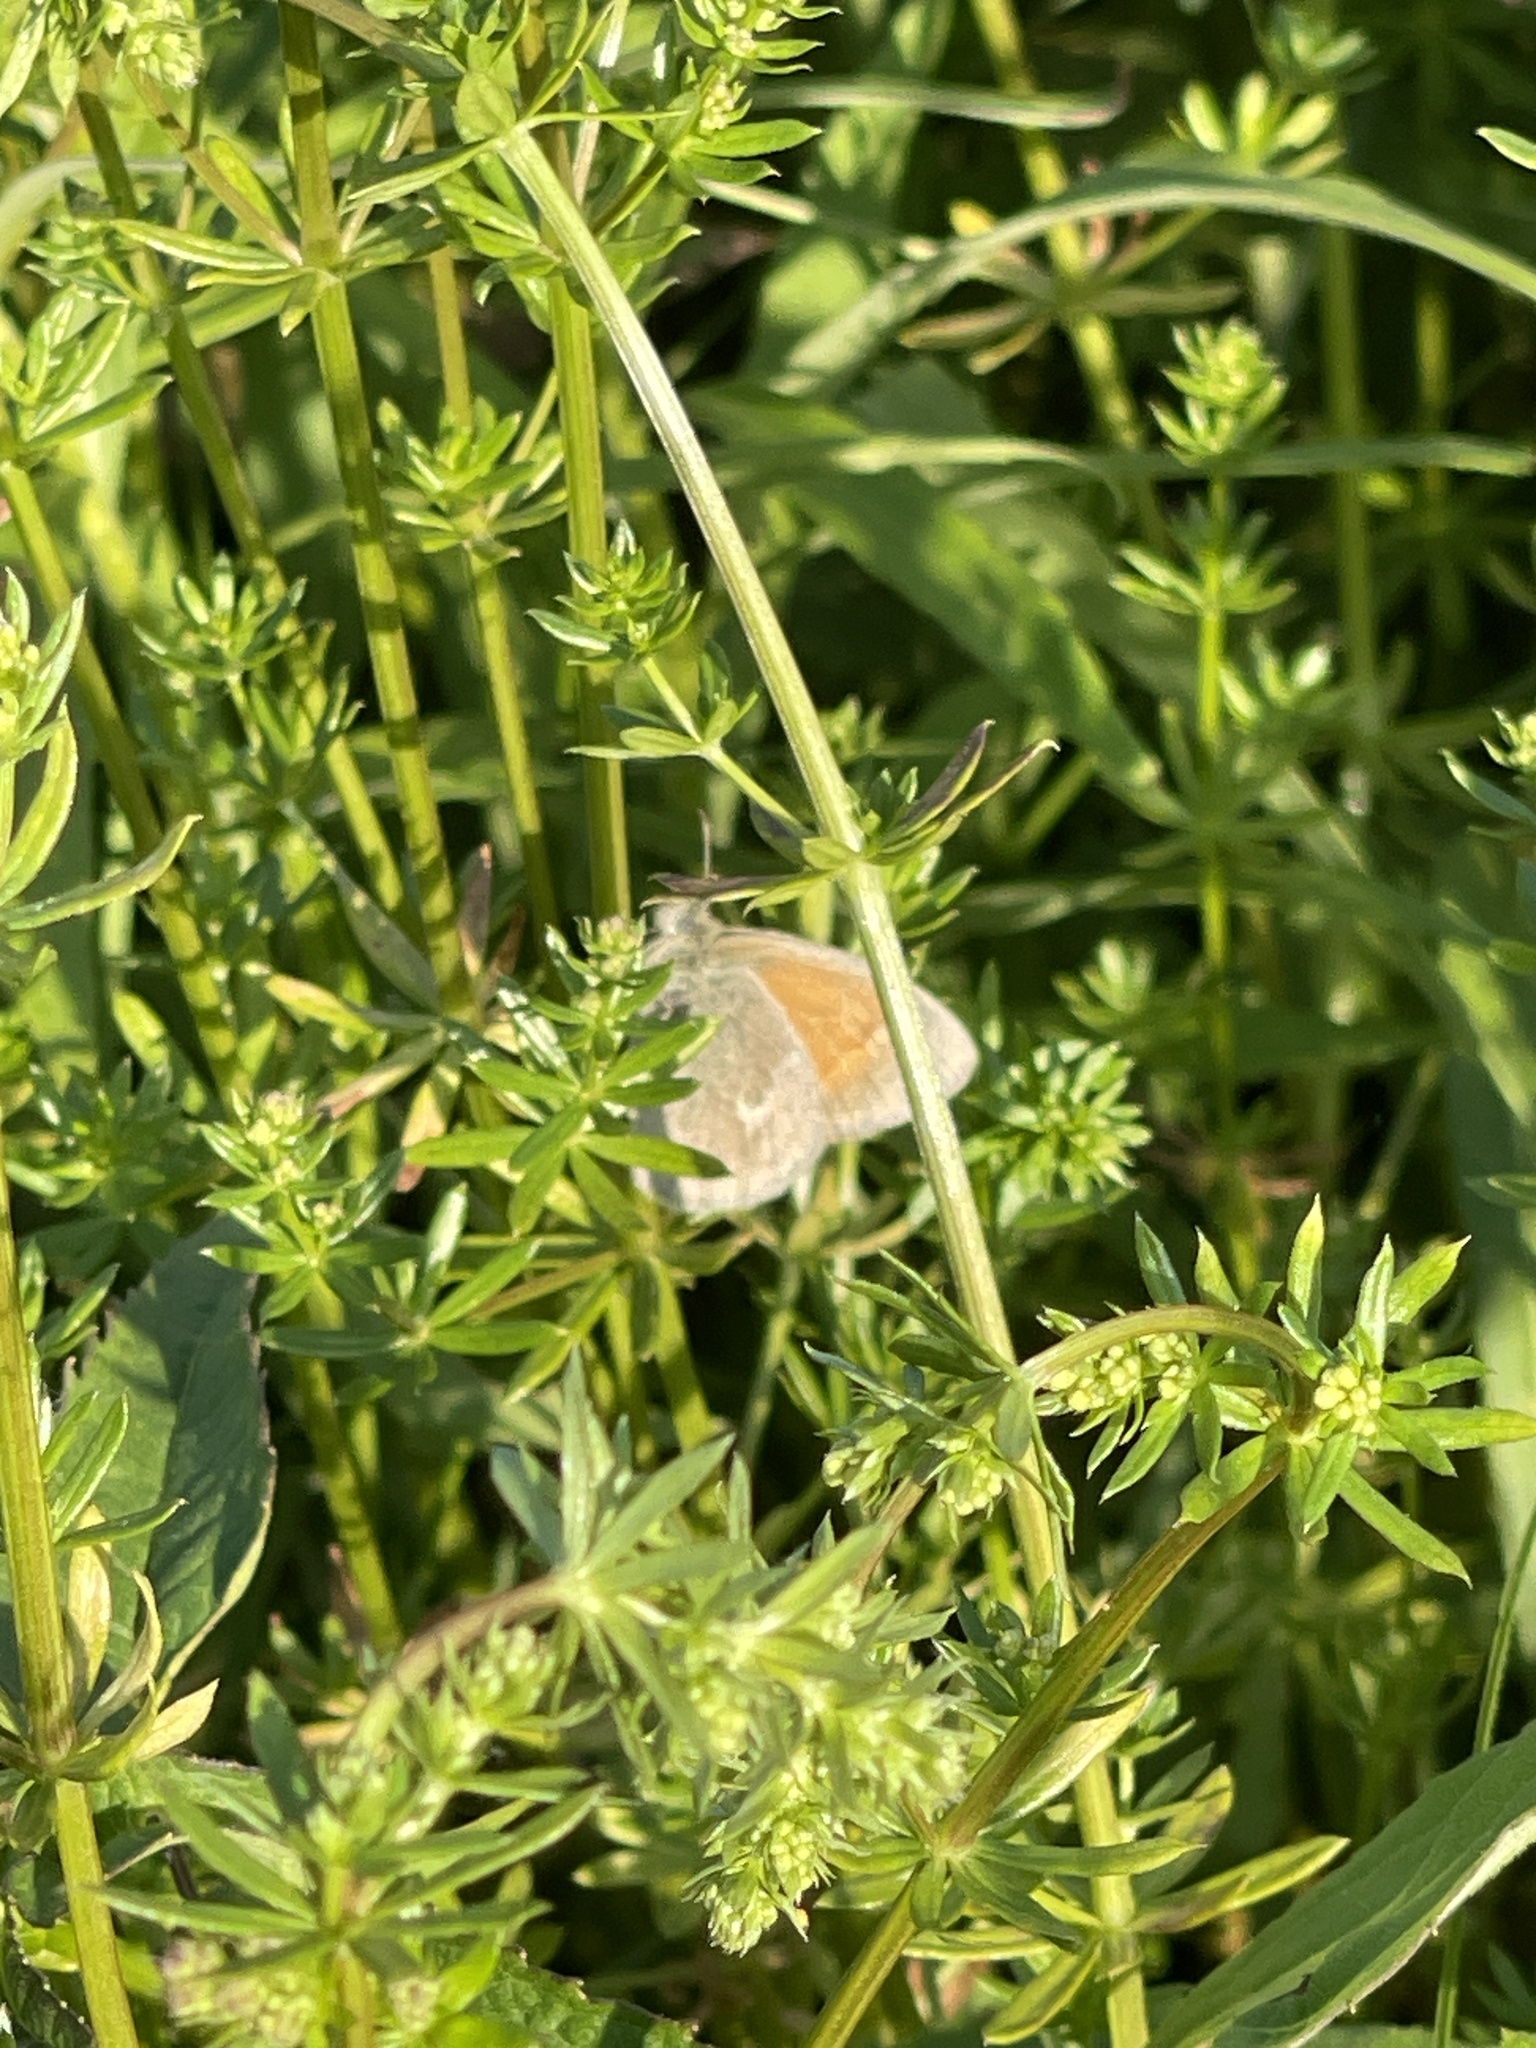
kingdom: Animalia
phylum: Arthropoda
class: Insecta
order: Lepidoptera
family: Nymphalidae
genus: Coenonympha
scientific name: Coenonympha california
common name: Common ringlet
